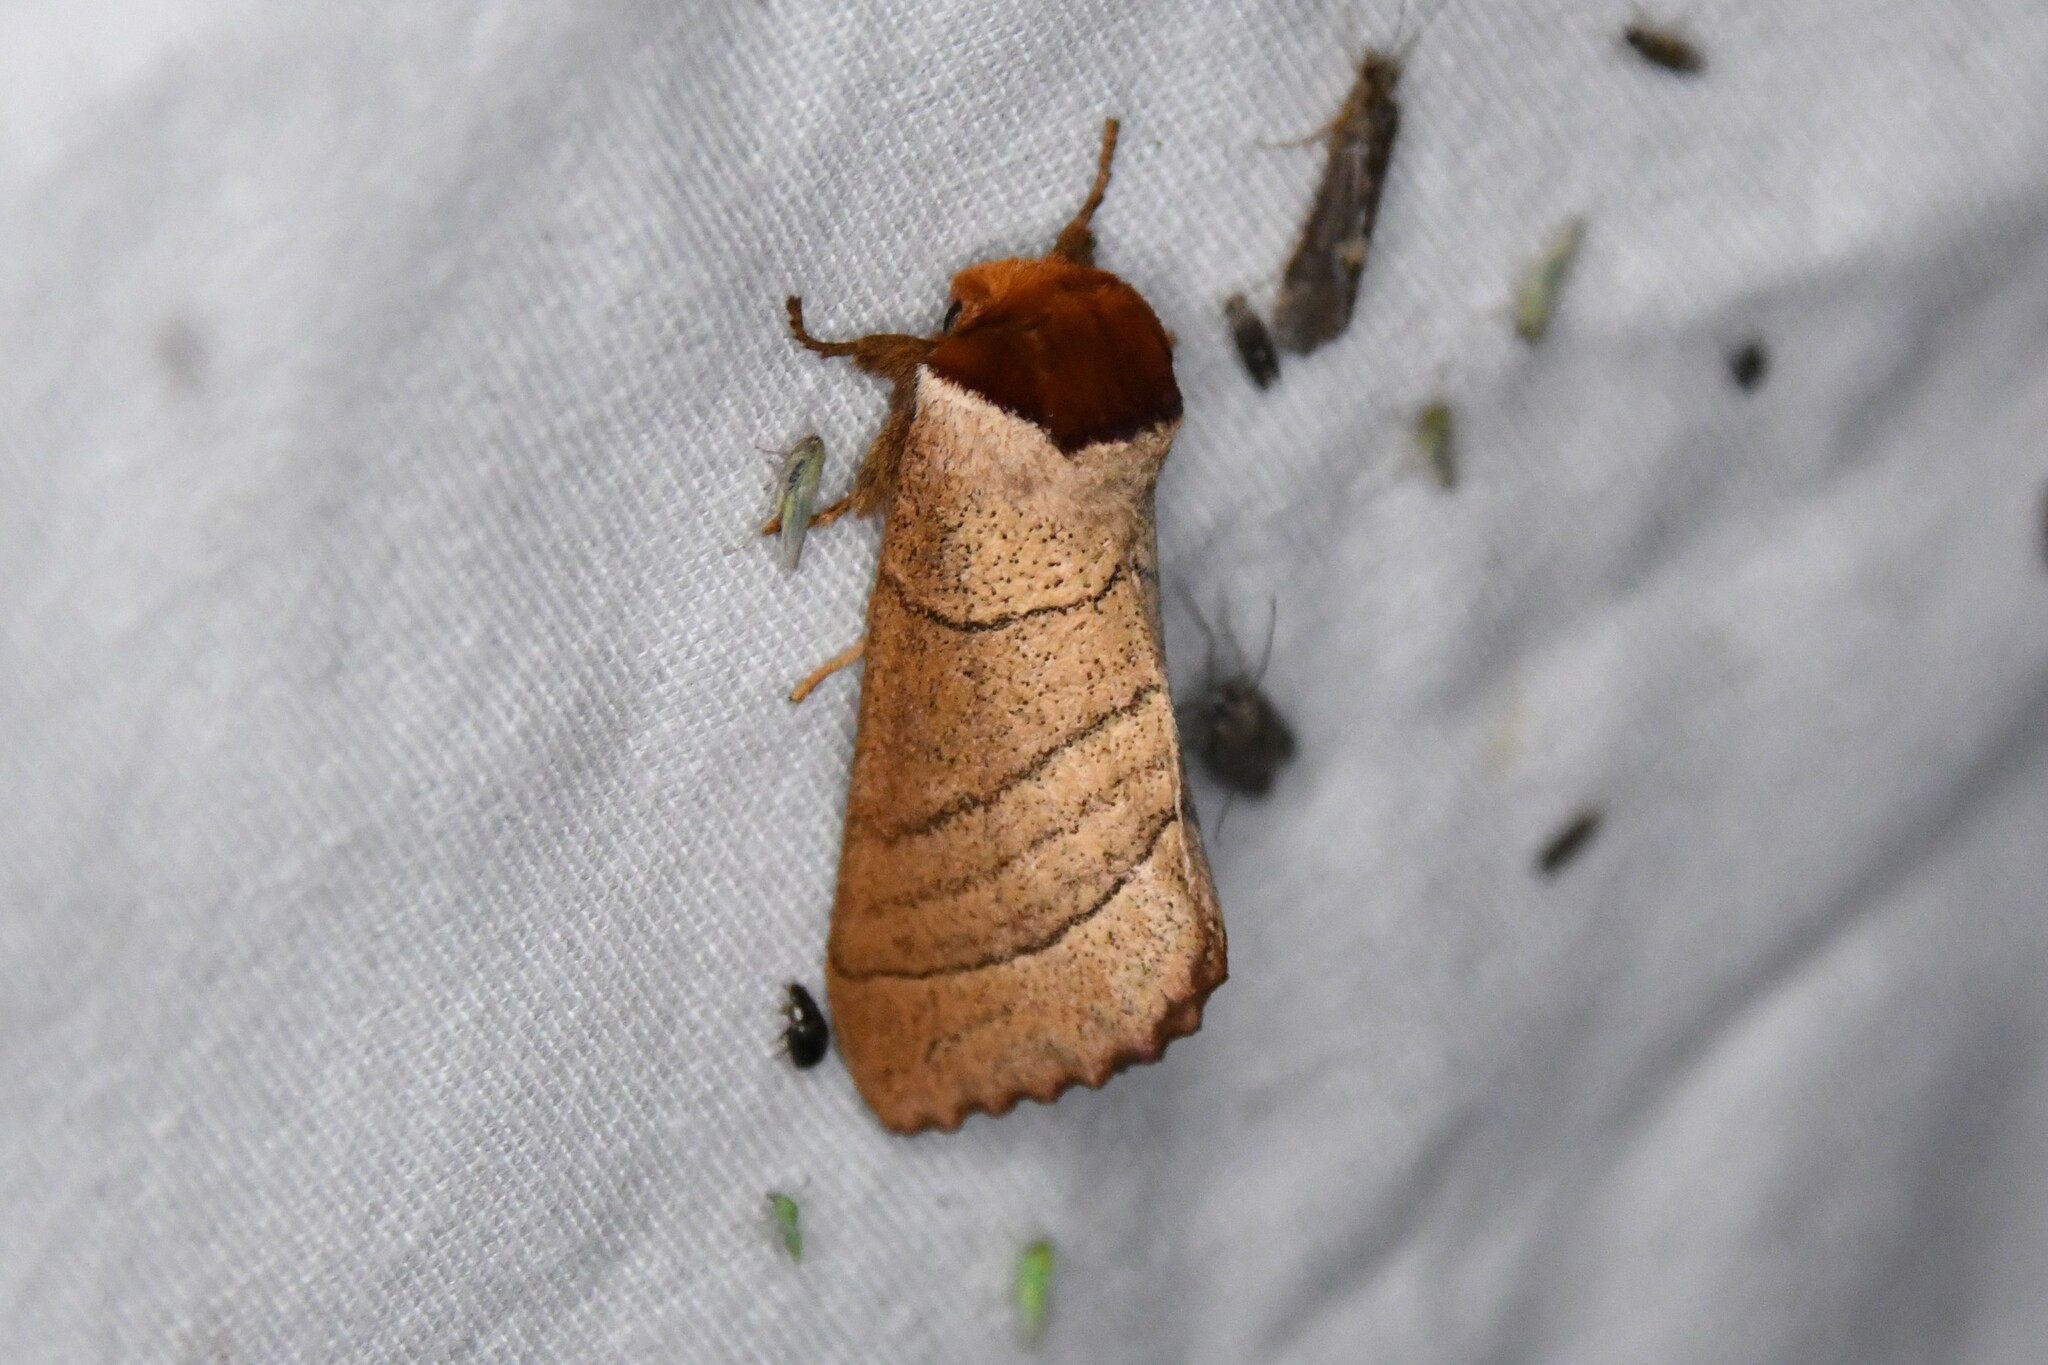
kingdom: Animalia
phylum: Arthropoda
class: Insecta
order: Lepidoptera
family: Notodontidae
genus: Datana
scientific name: Datana ministra
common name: Yellow-necked caterpillar moth
